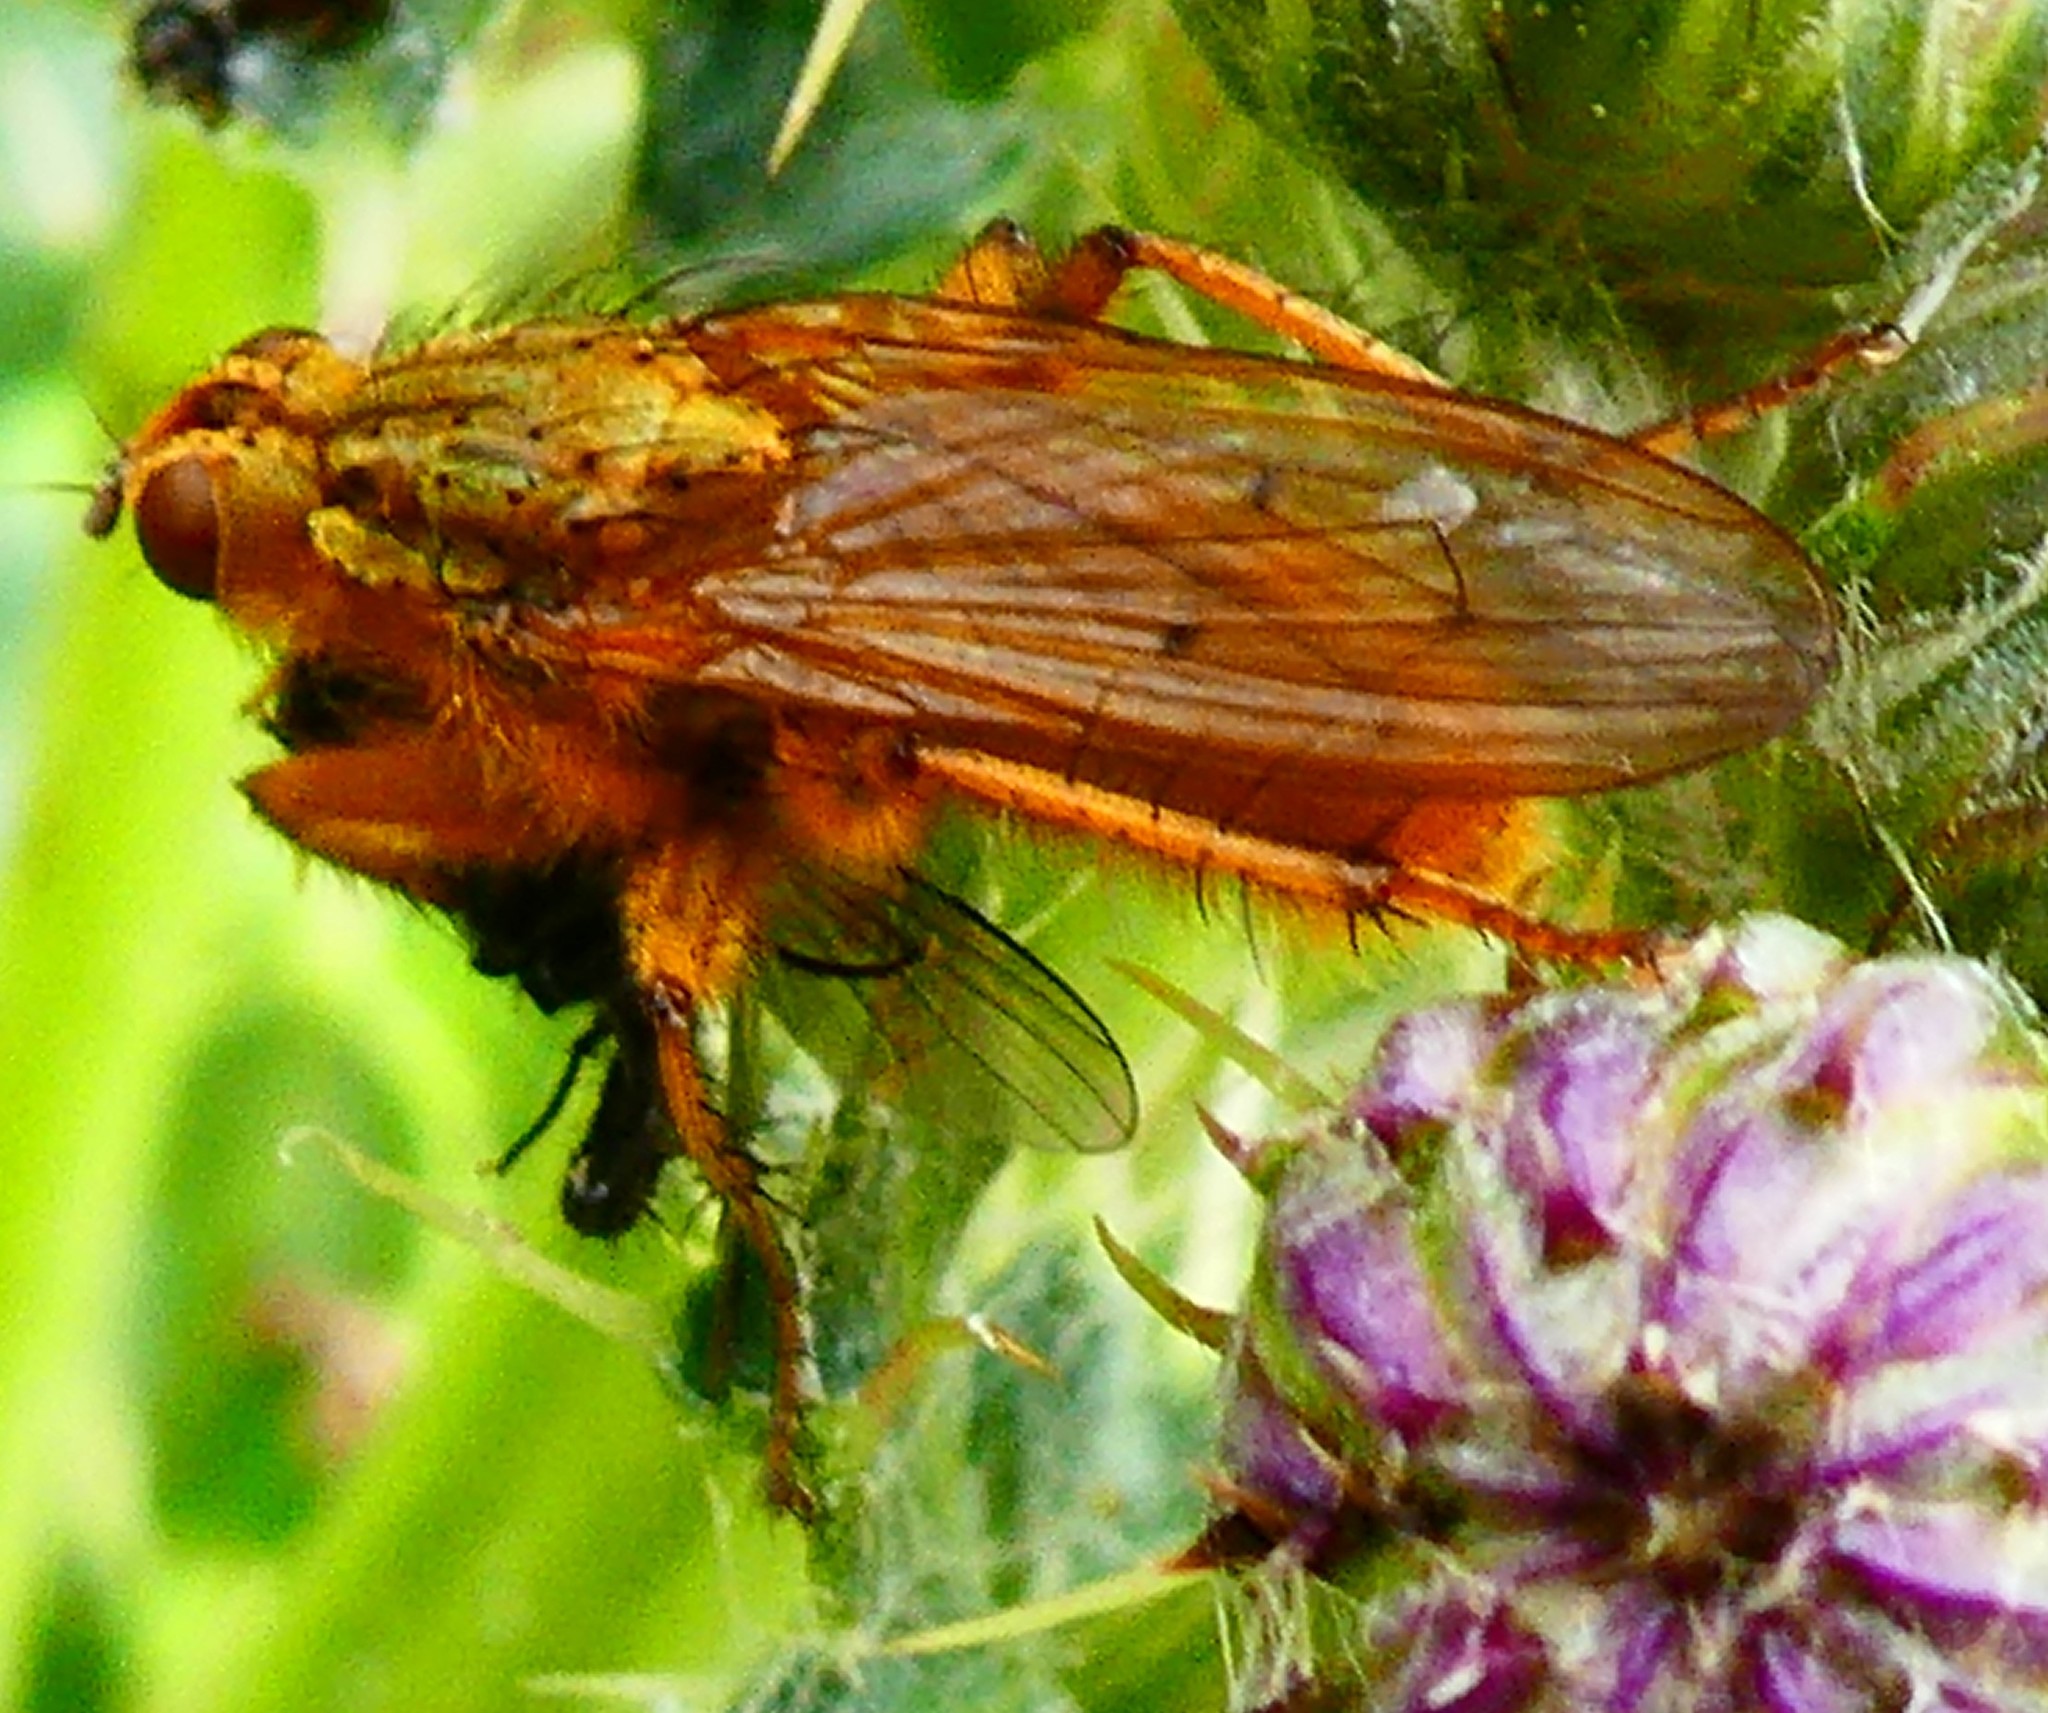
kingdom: Animalia
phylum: Arthropoda
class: Insecta
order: Diptera
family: Scathophagidae
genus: Scathophaga
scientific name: Scathophaga stercoraria
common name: Yellow dung fly
